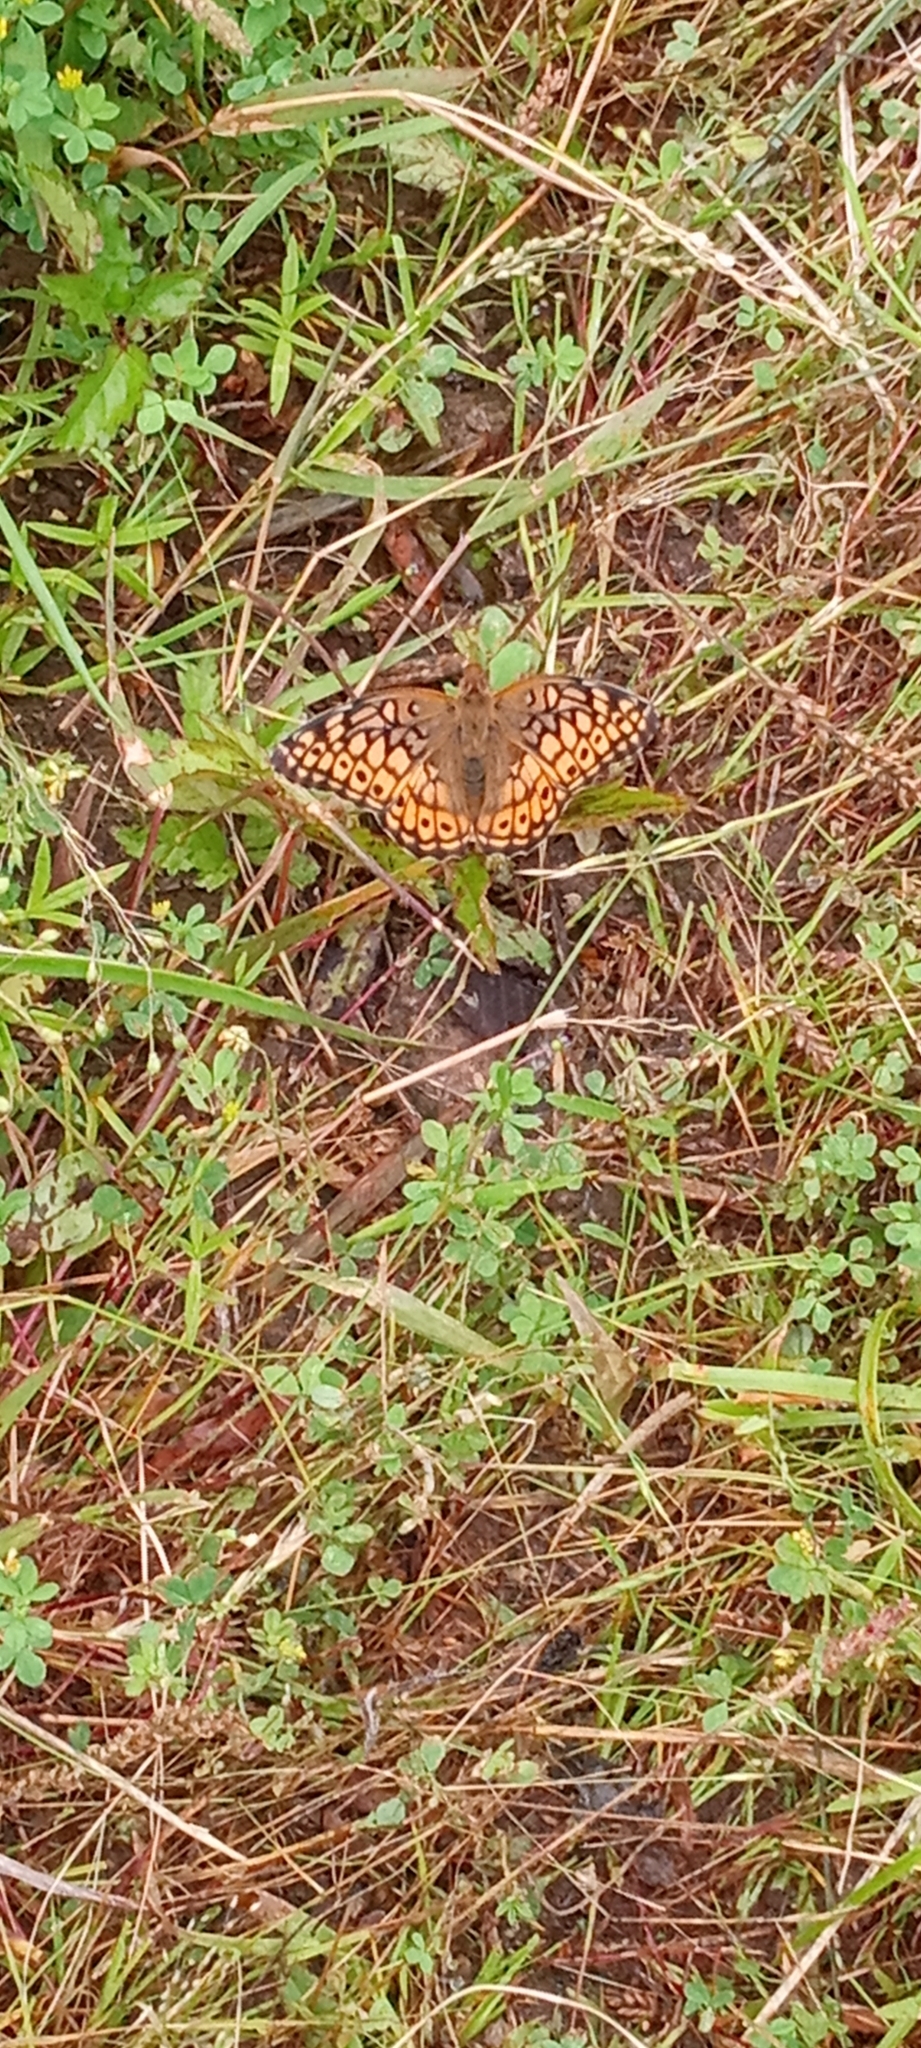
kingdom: Animalia
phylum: Arthropoda
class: Insecta
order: Lepidoptera
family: Nymphalidae
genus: Euptoieta
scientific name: Euptoieta claudia
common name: Variegated fritillary
